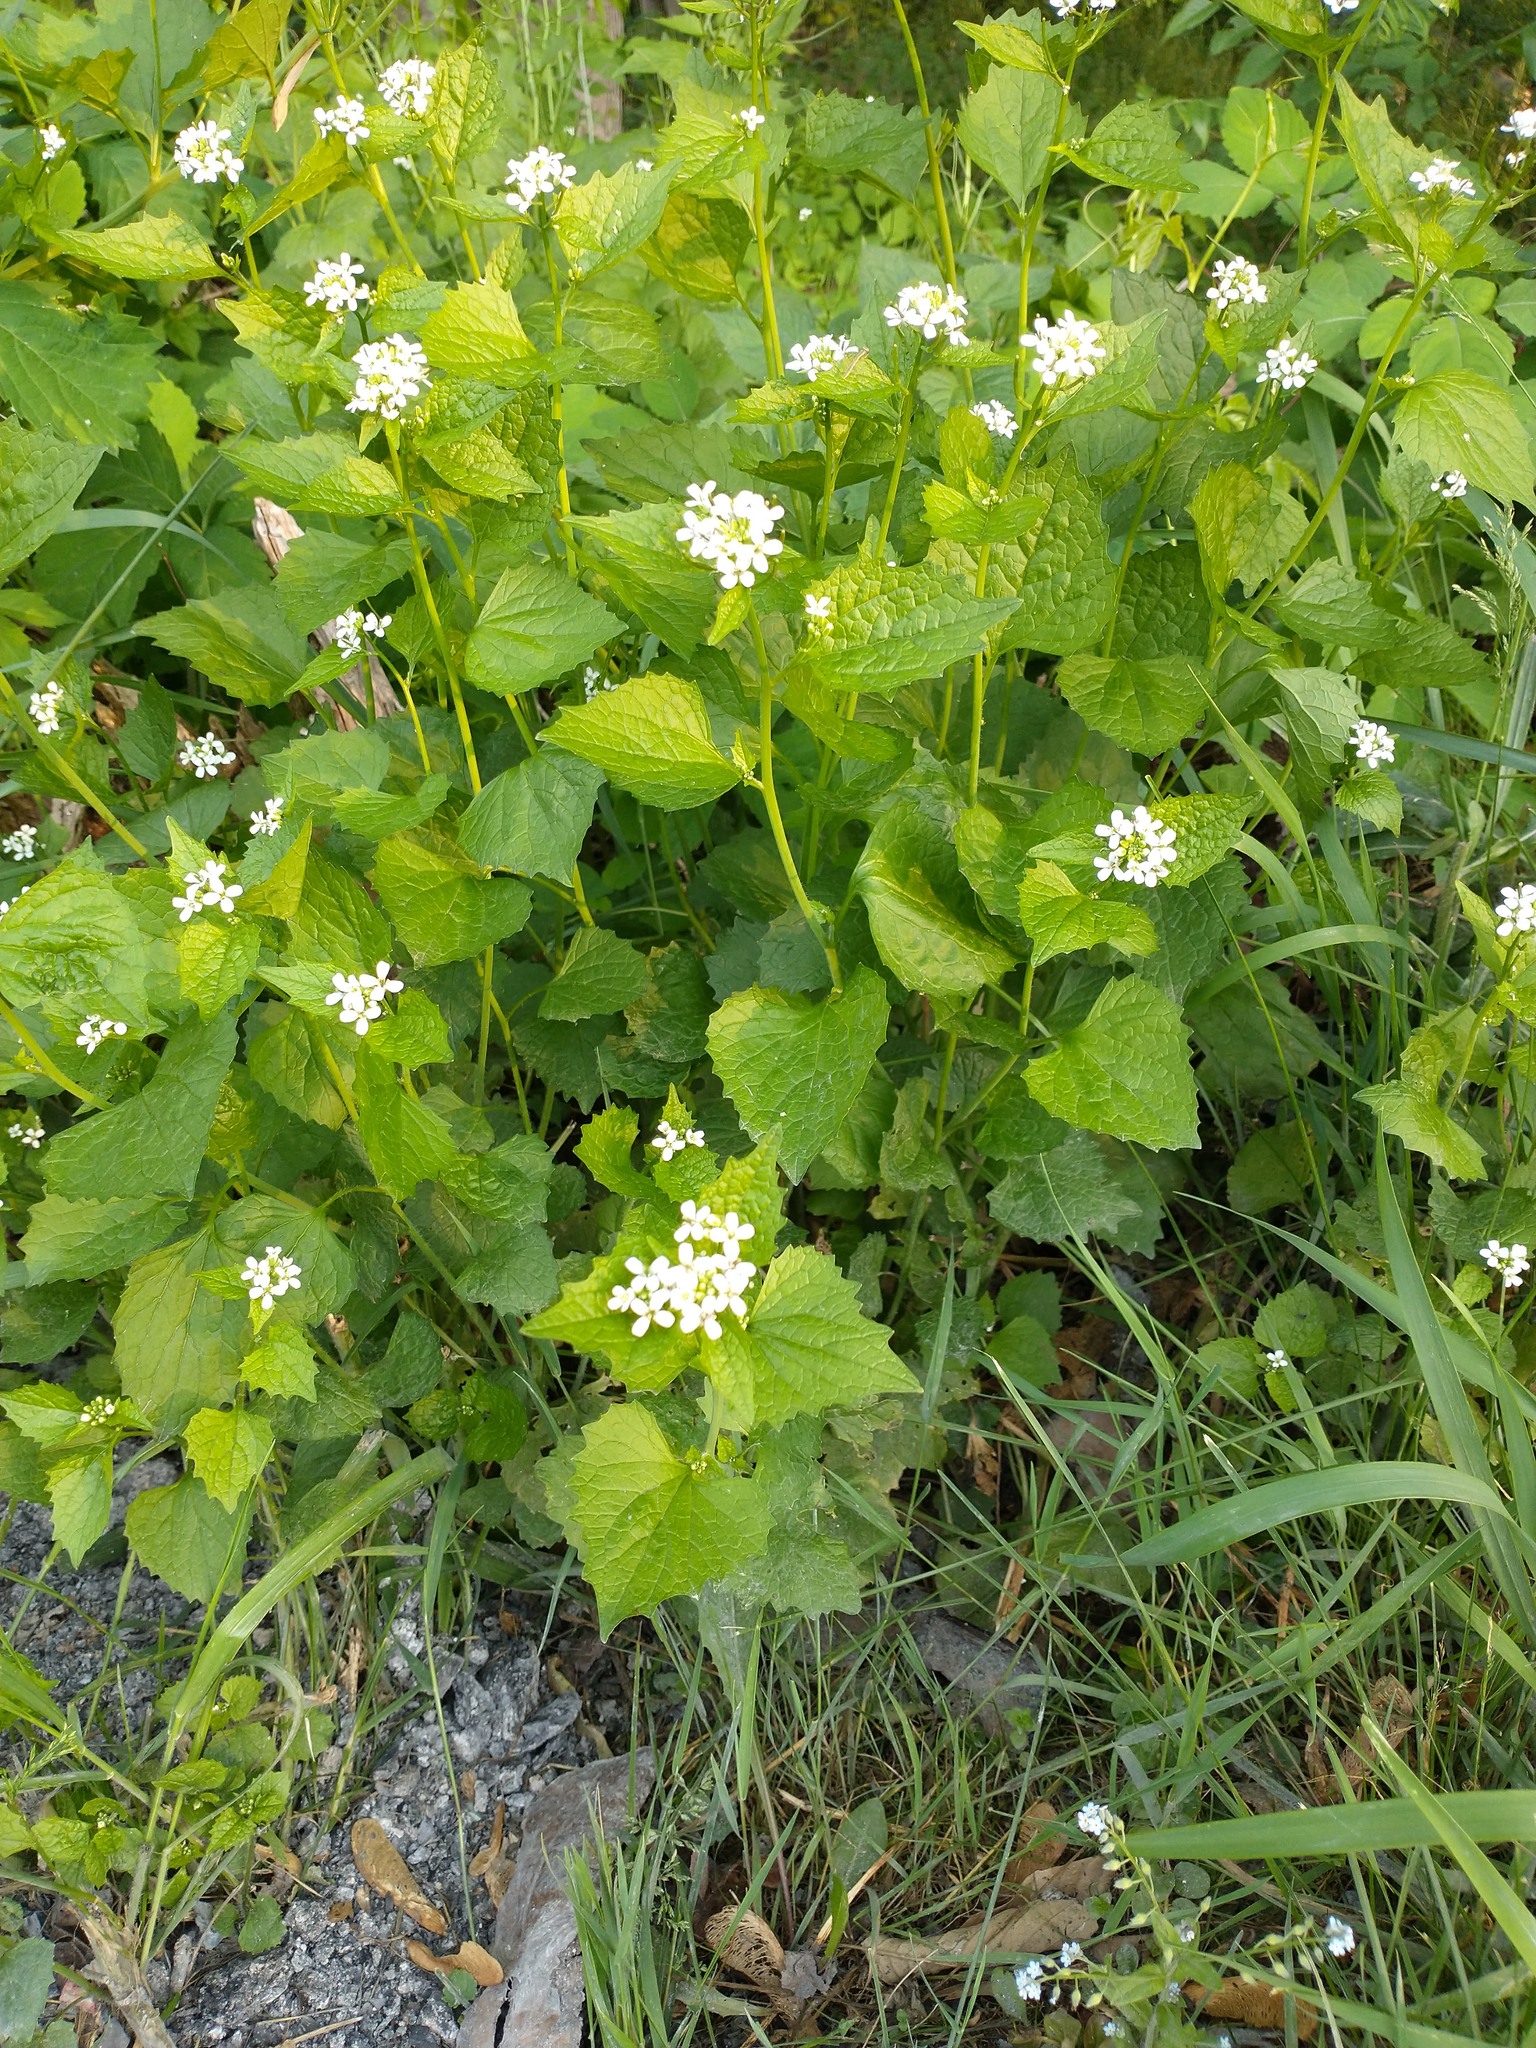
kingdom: Plantae
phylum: Tracheophyta
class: Magnoliopsida
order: Brassicales
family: Brassicaceae
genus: Alliaria
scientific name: Alliaria petiolata
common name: Garlic mustard
